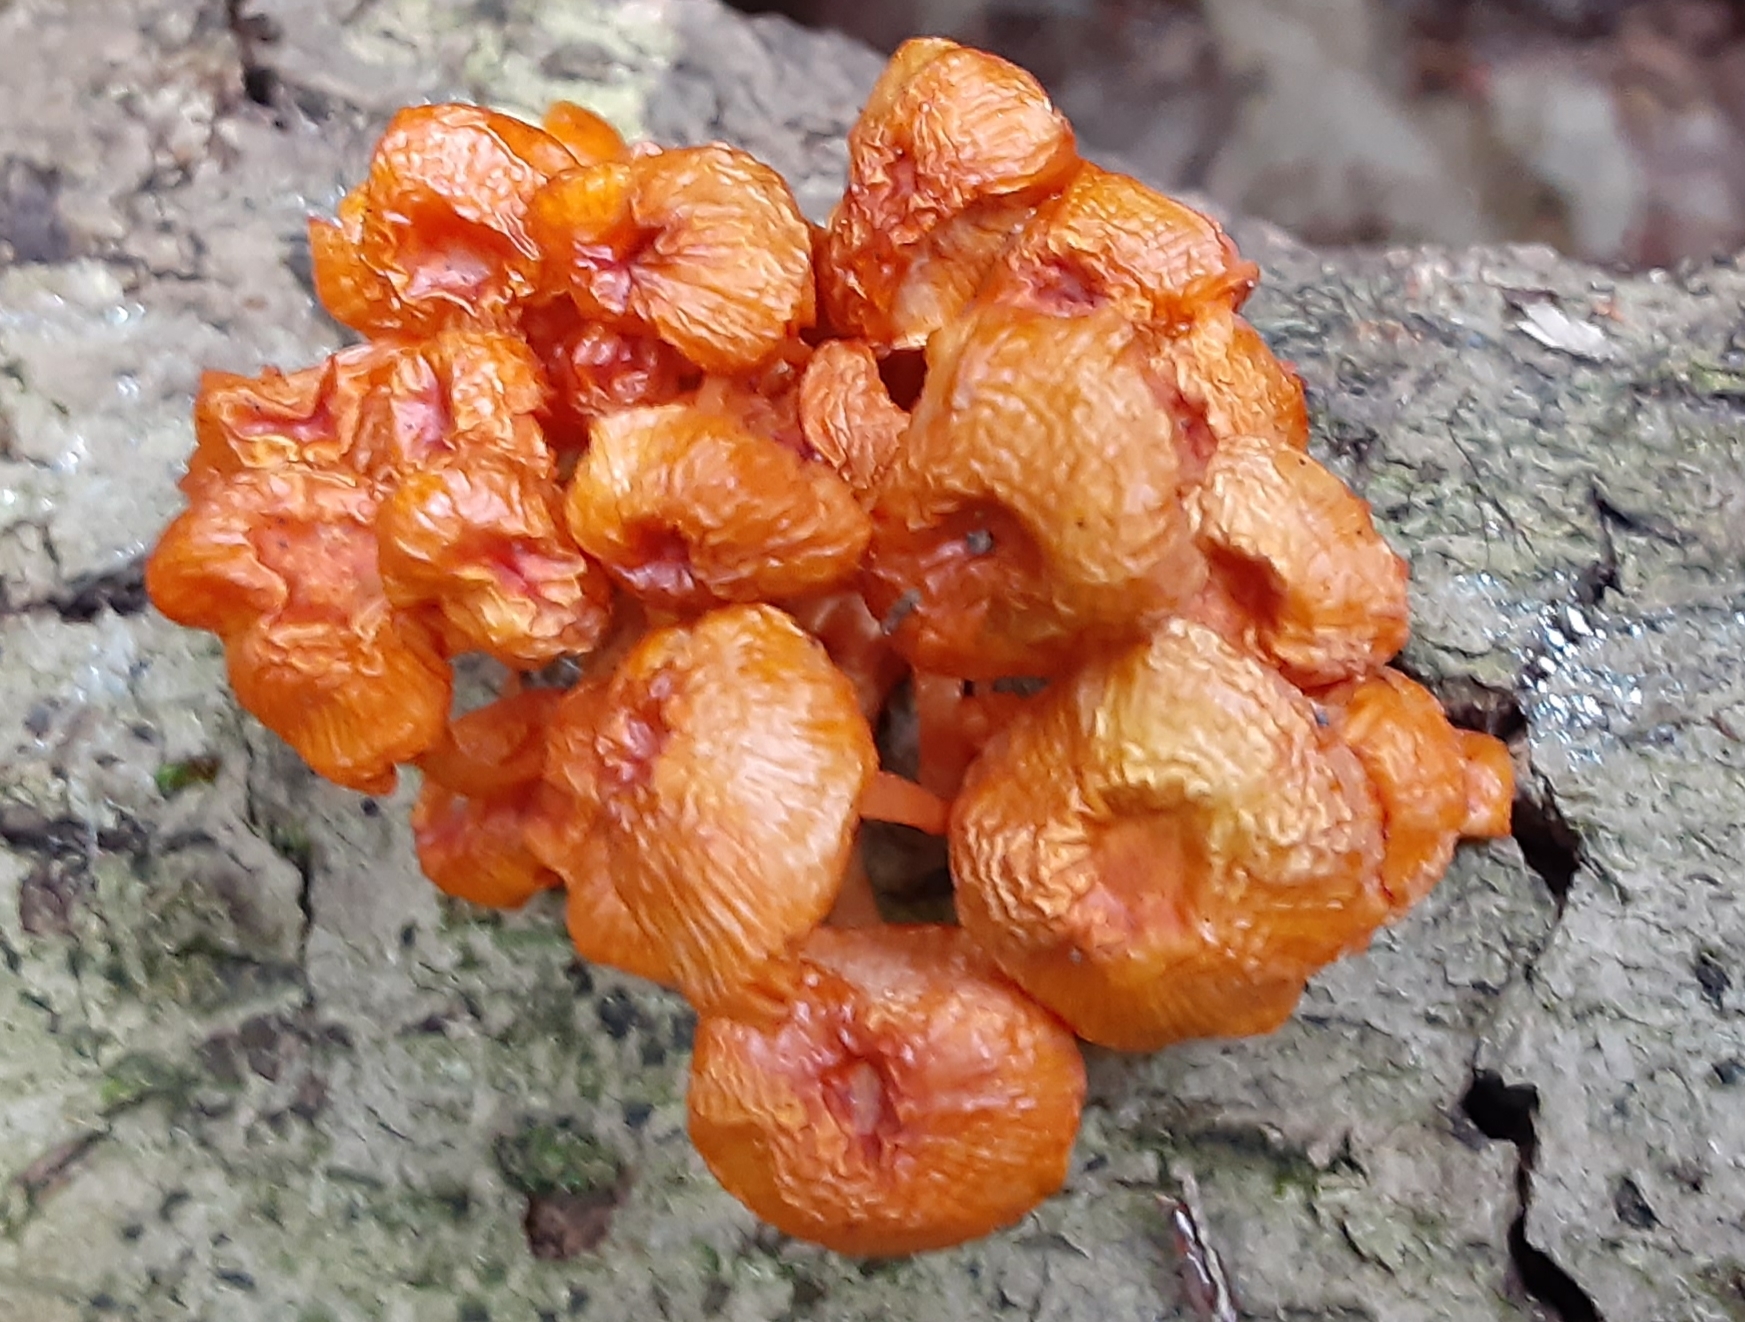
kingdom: Fungi
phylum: Basidiomycota
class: Agaricomycetes
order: Agaricales
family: Mycenaceae
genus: Mycena
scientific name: Mycena leaiana
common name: Orange mycena
